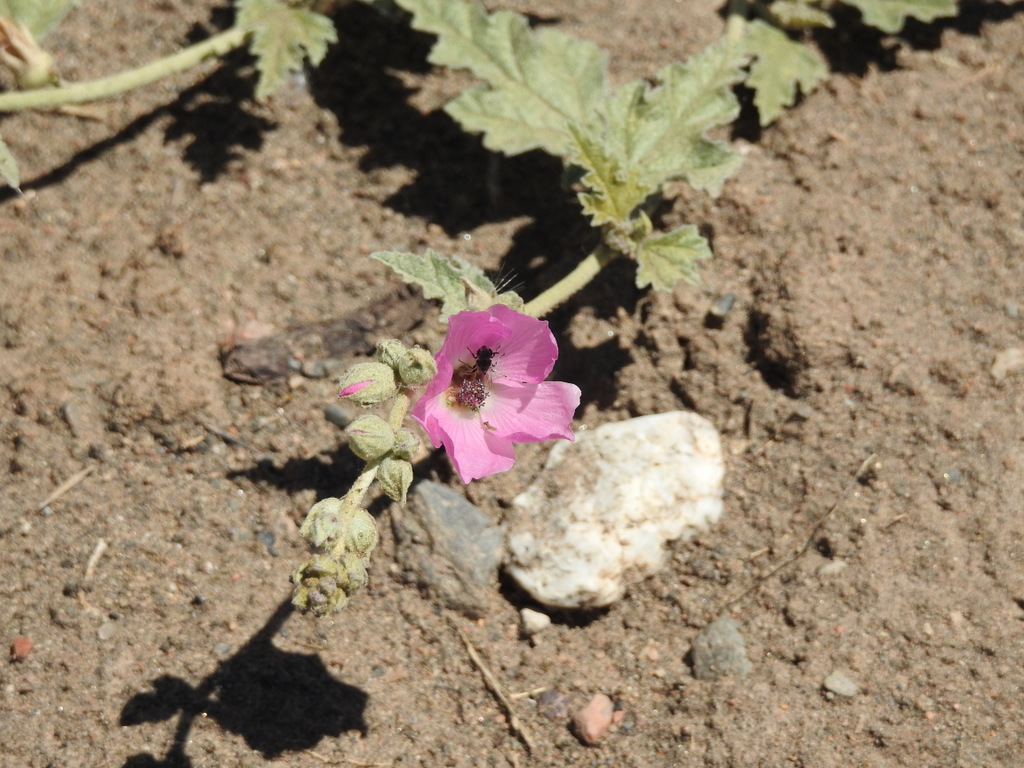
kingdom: Plantae
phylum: Tracheophyta
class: Magnoliopsida
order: Malvales
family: Malvaceae
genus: Sphaeralcea
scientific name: Sphaeralcea mendocina
